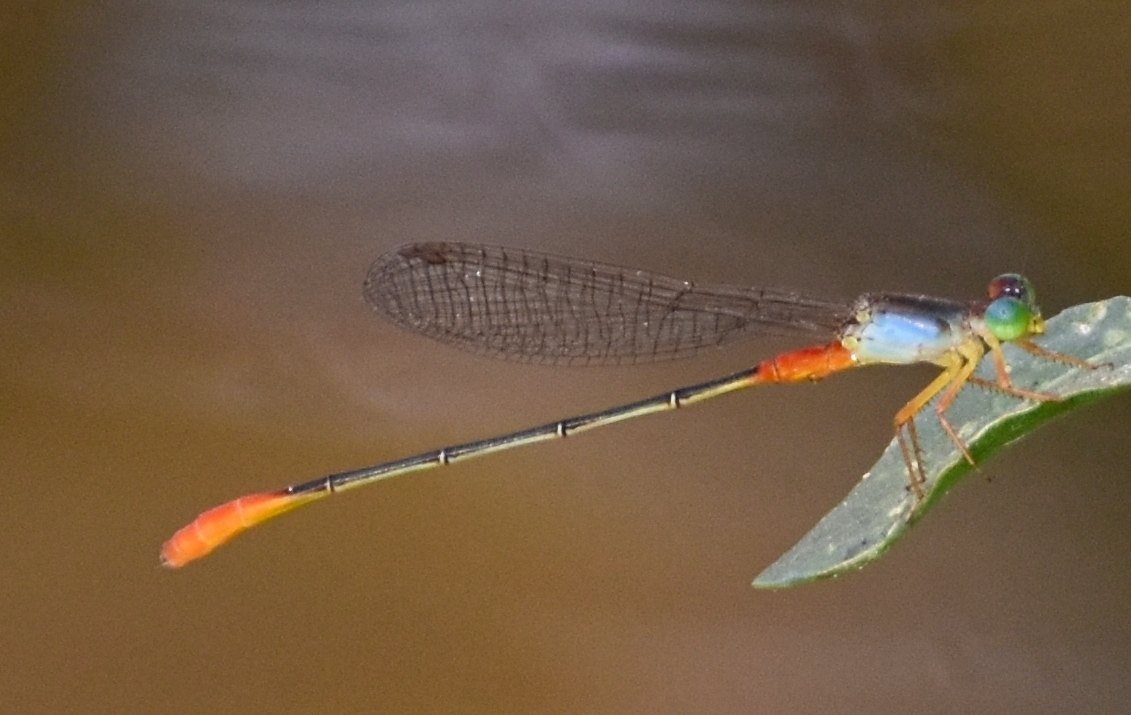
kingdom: Animalia
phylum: Arthropoda
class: Insecta
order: Odonata
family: Coenagrionidae
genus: Ceriagrion
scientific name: Ceriagrion cerinorubellum
